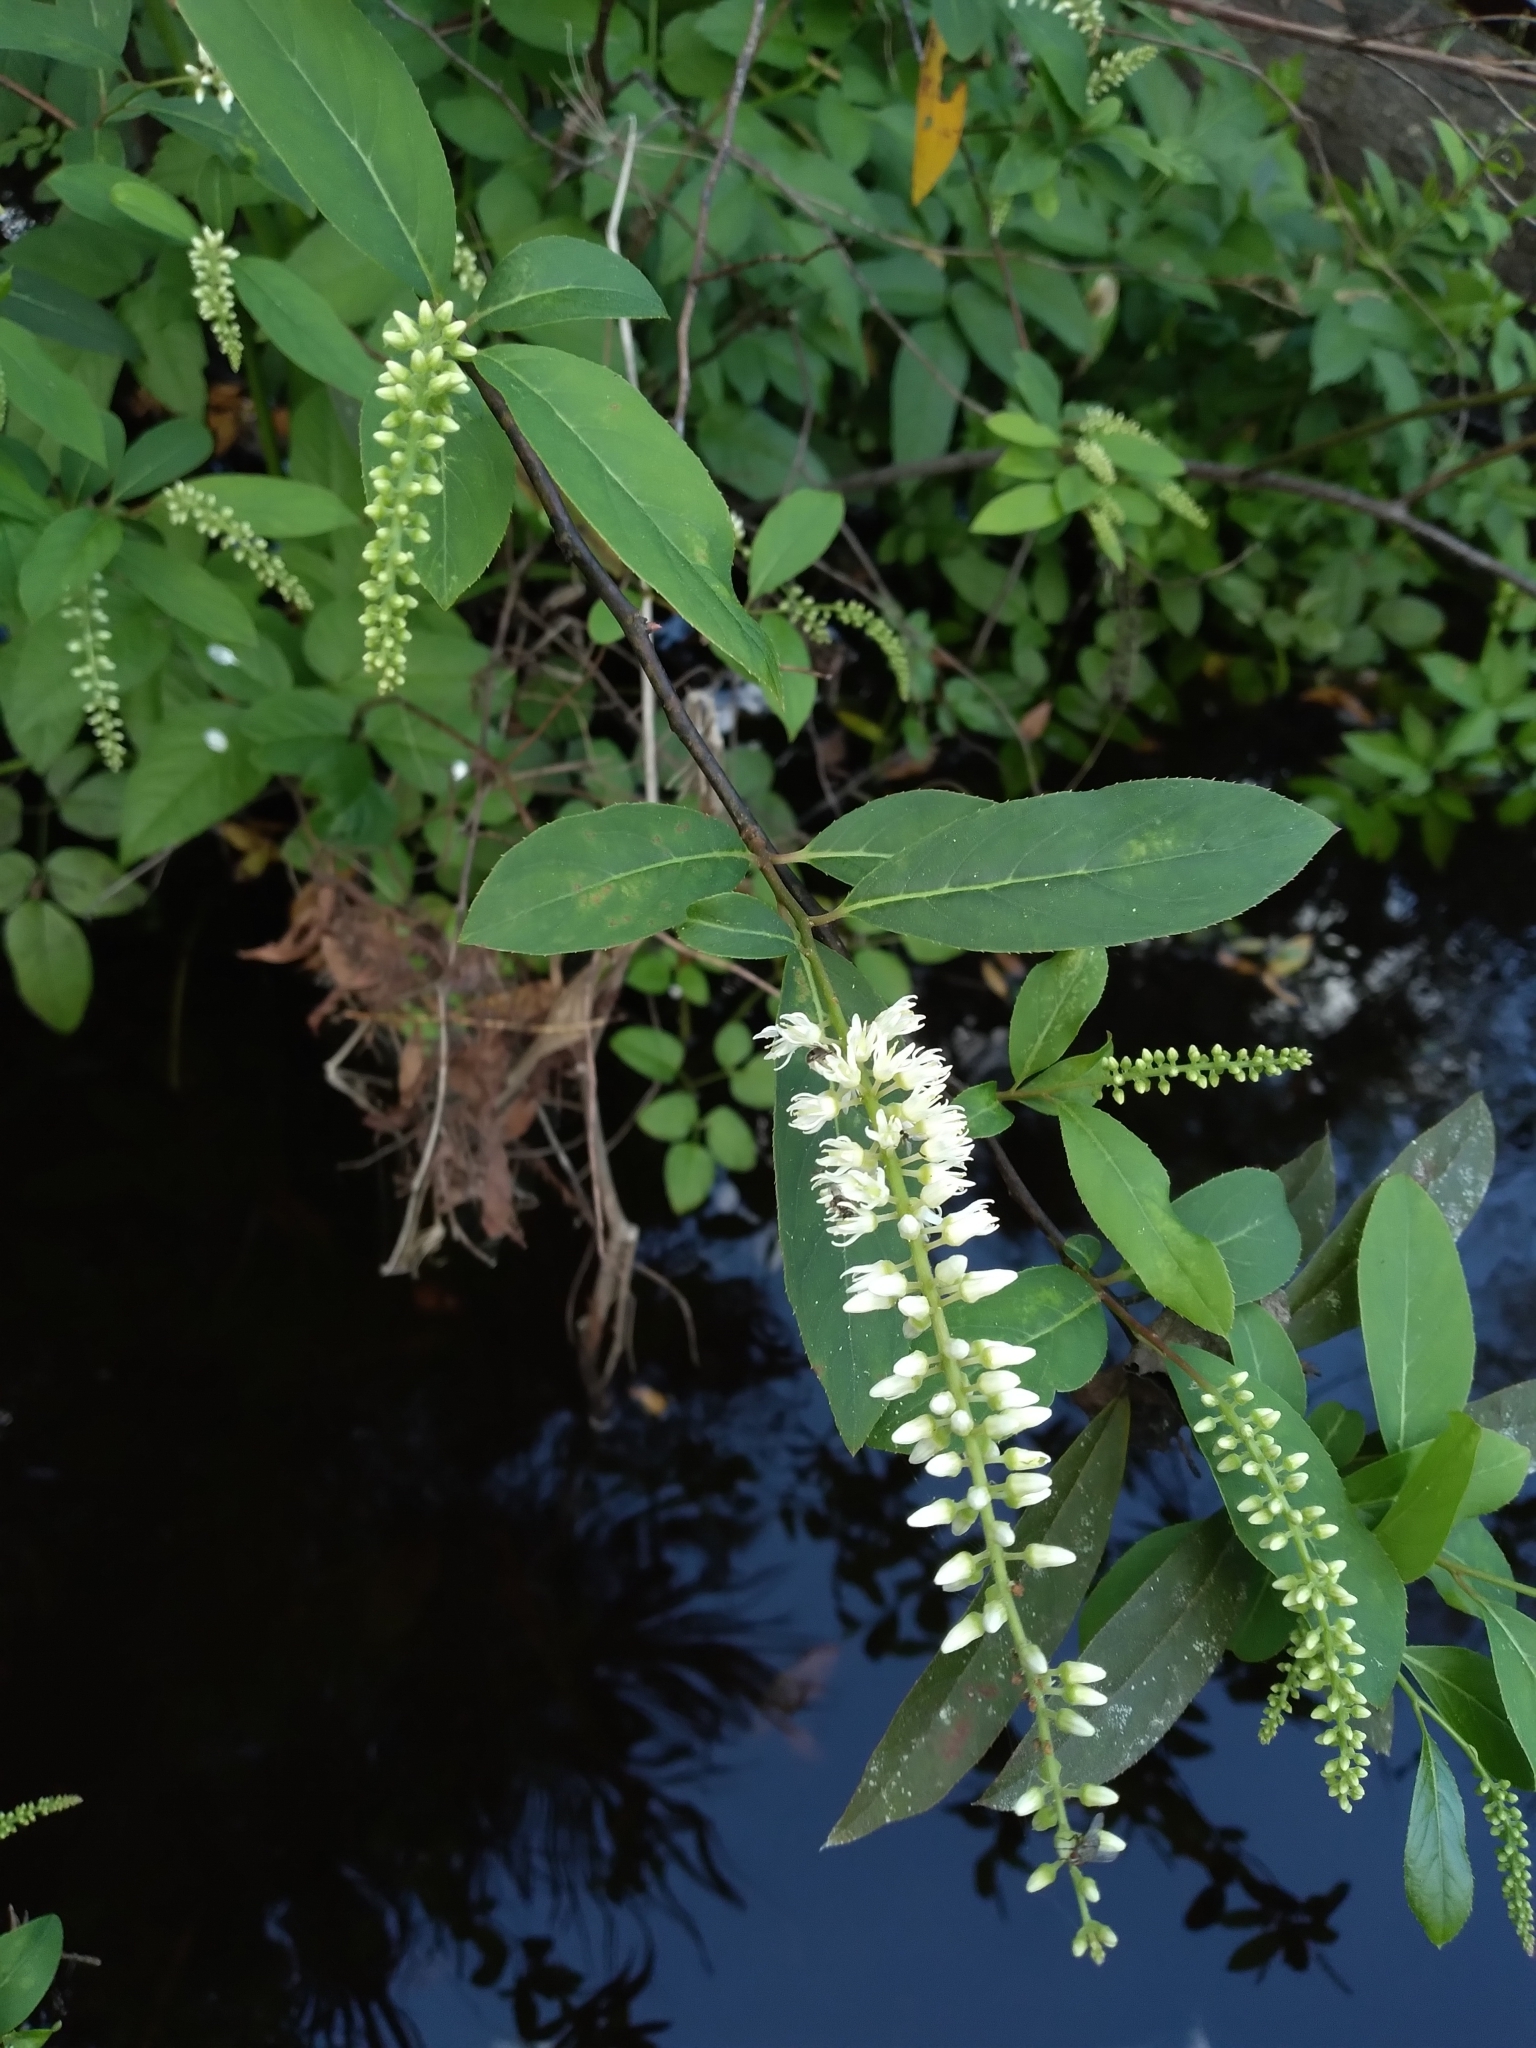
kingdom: Plantae
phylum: Tracheophyta
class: Magnoliopsida
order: Saxifragales
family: Iteaceae
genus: Itea
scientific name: Itea virginica
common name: Sweetspire
